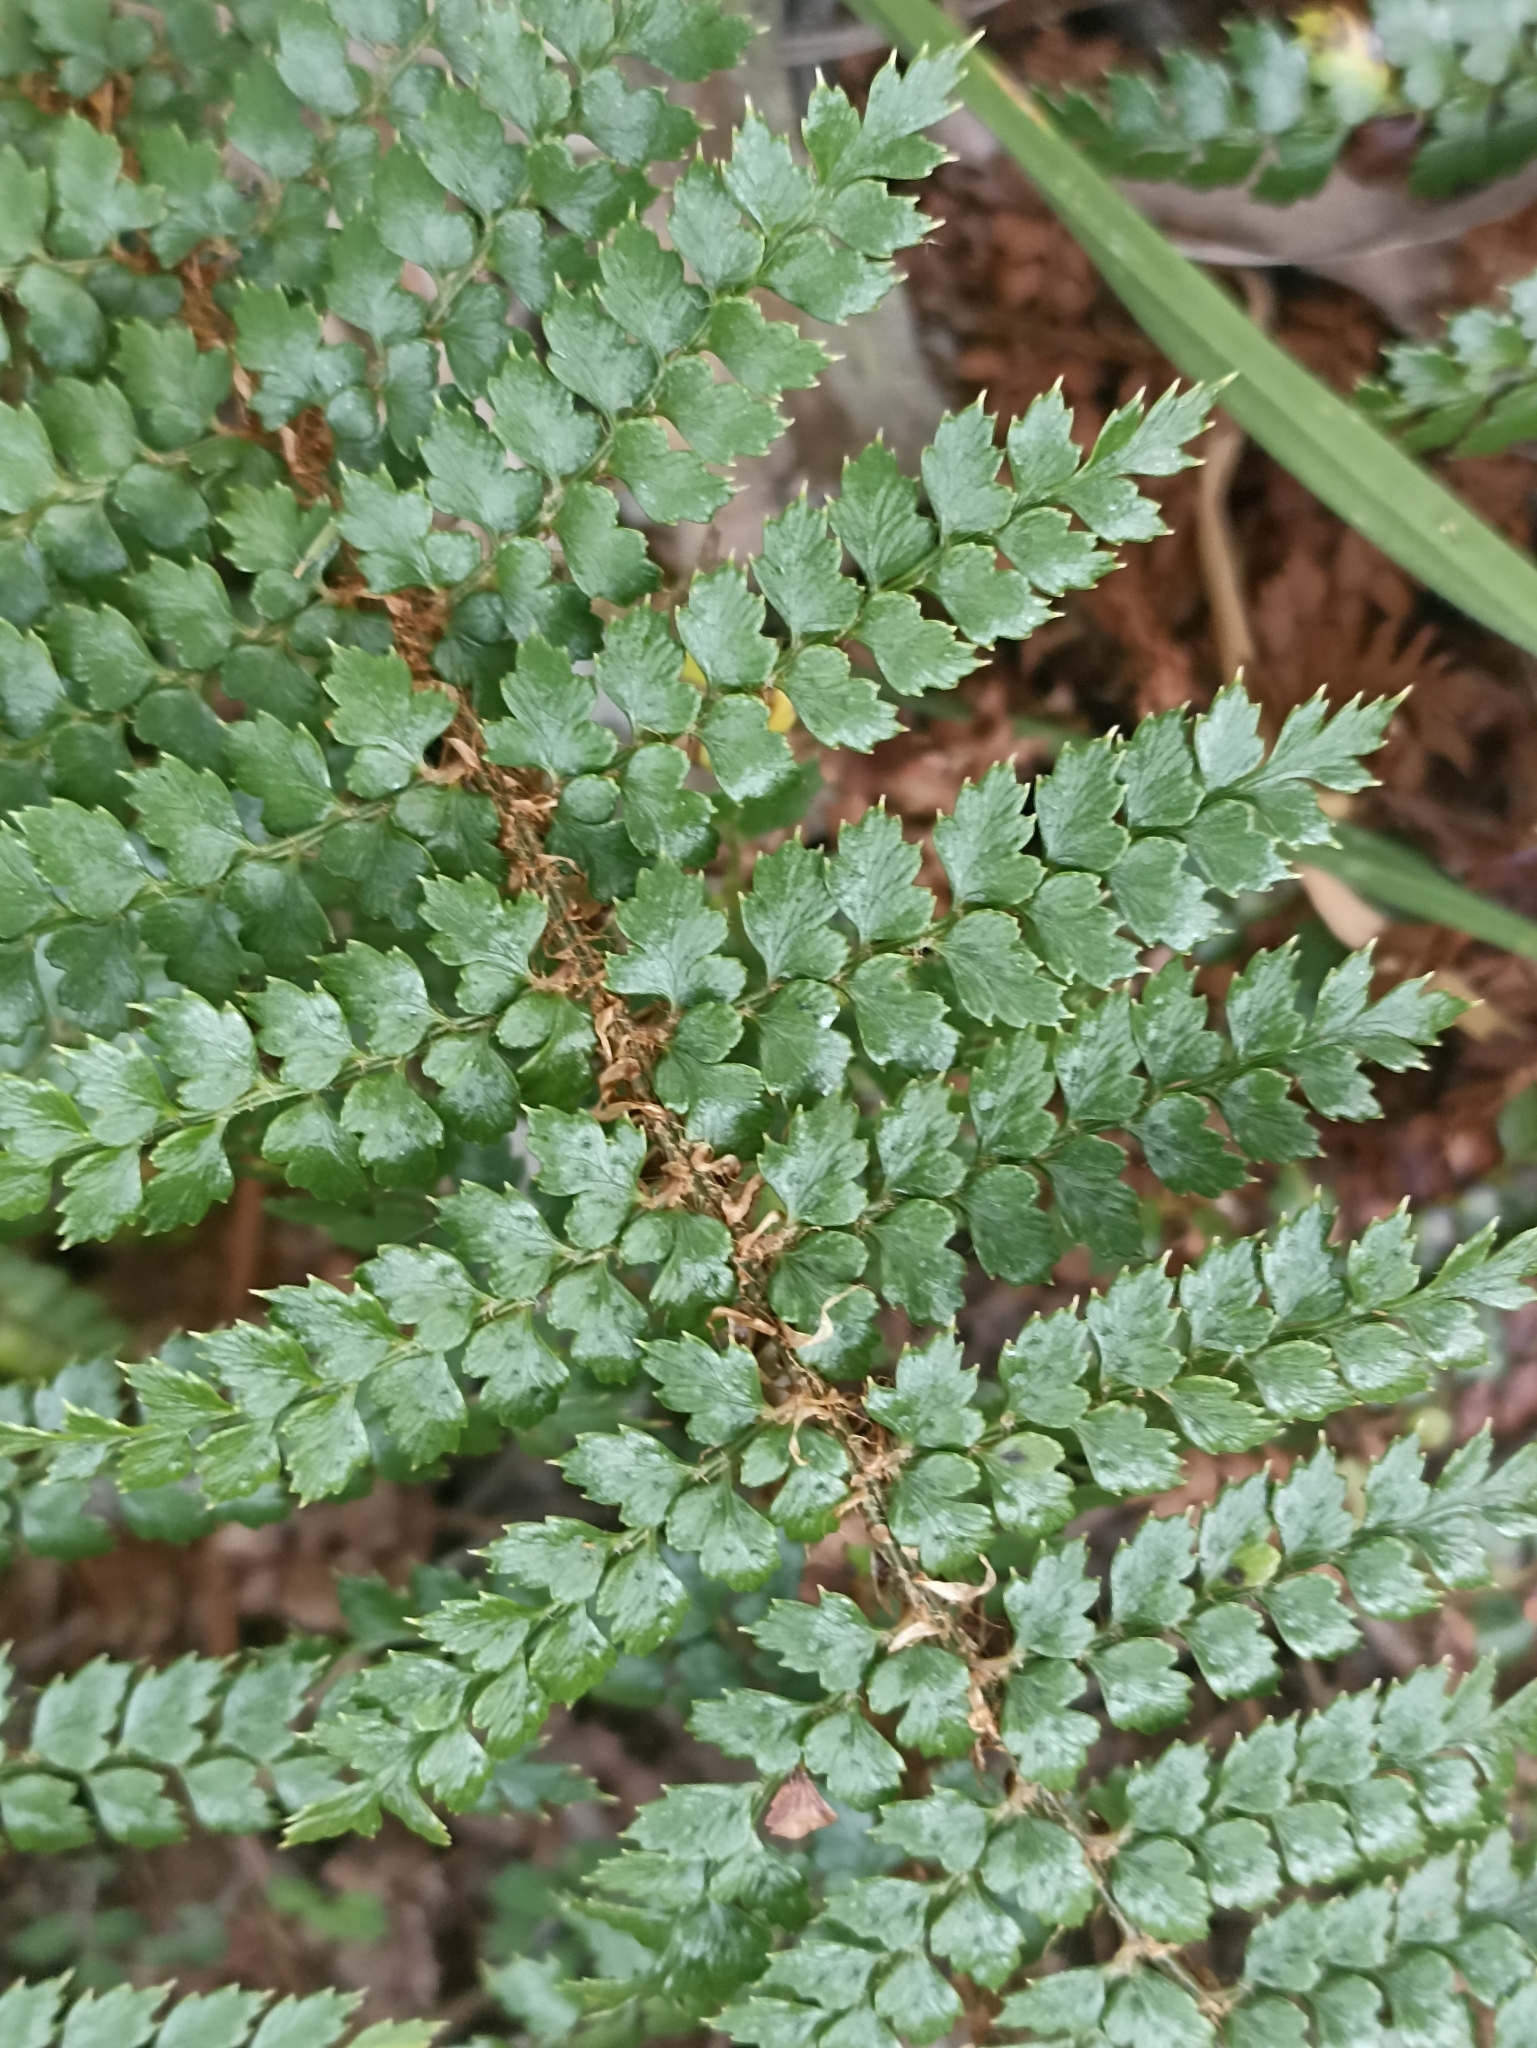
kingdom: Plantae
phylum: Tracheophyta
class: Polypodiopsida
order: Polypodiales
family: Dryopteridaceae
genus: Polystichum
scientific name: Polystichum vestitum
